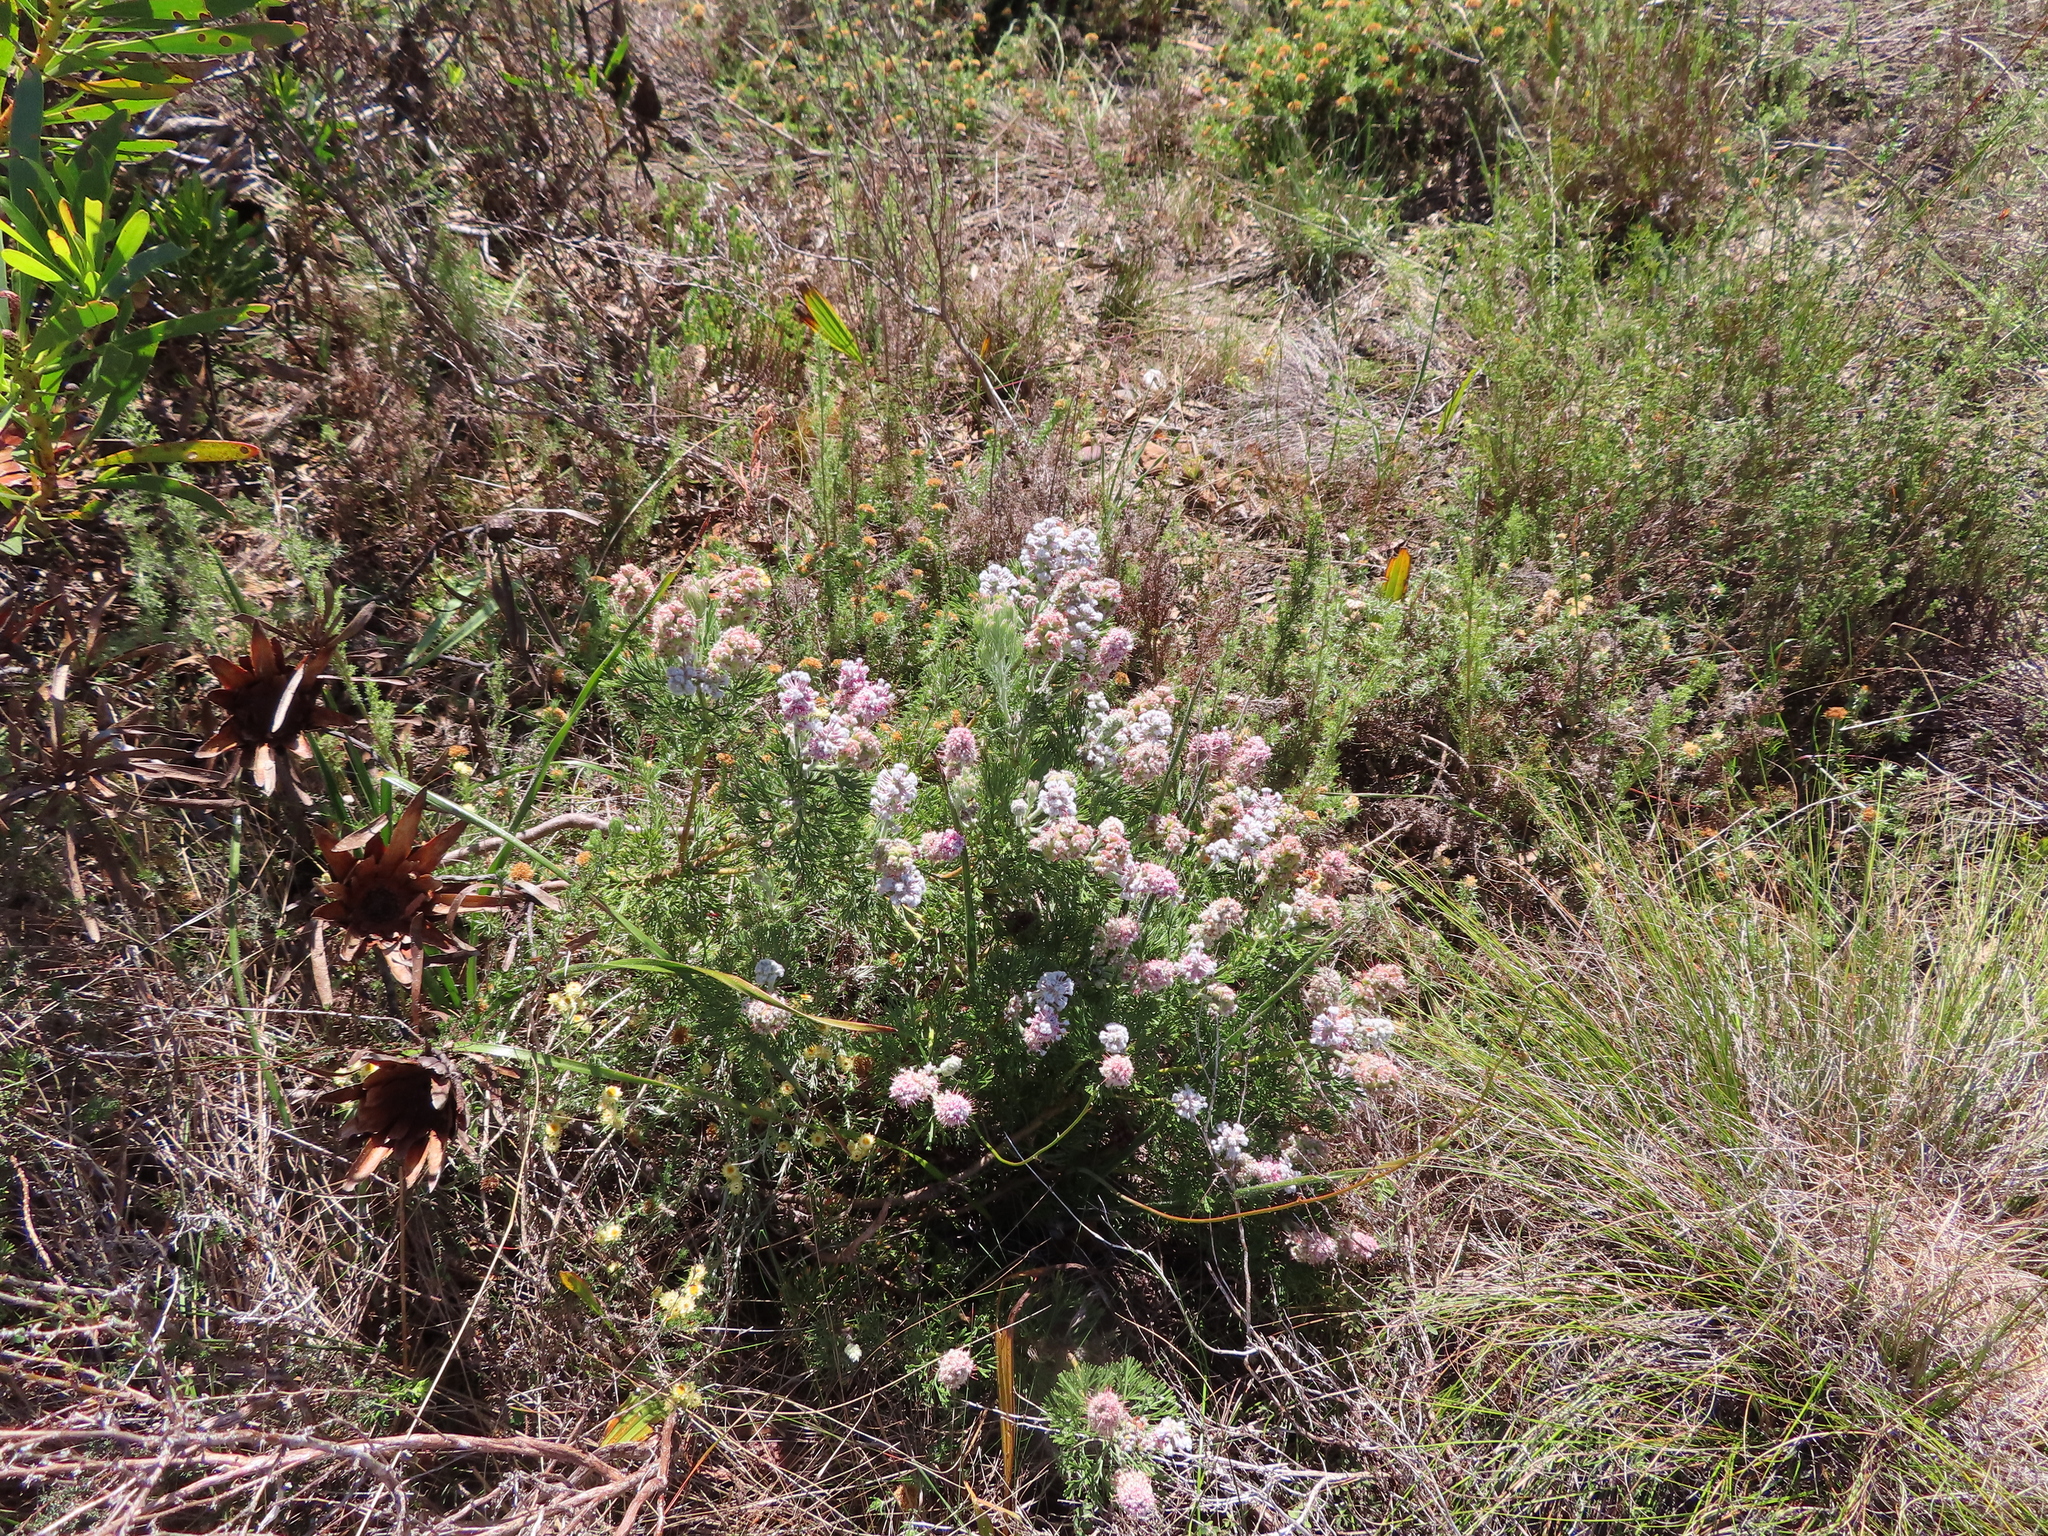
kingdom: Plantae
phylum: Tracheophyta
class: Magnoliopsida
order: Proteales
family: Proteaceae
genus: Paranomus
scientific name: Paranomus abrotanifolius
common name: Bredasdorp sceptre
